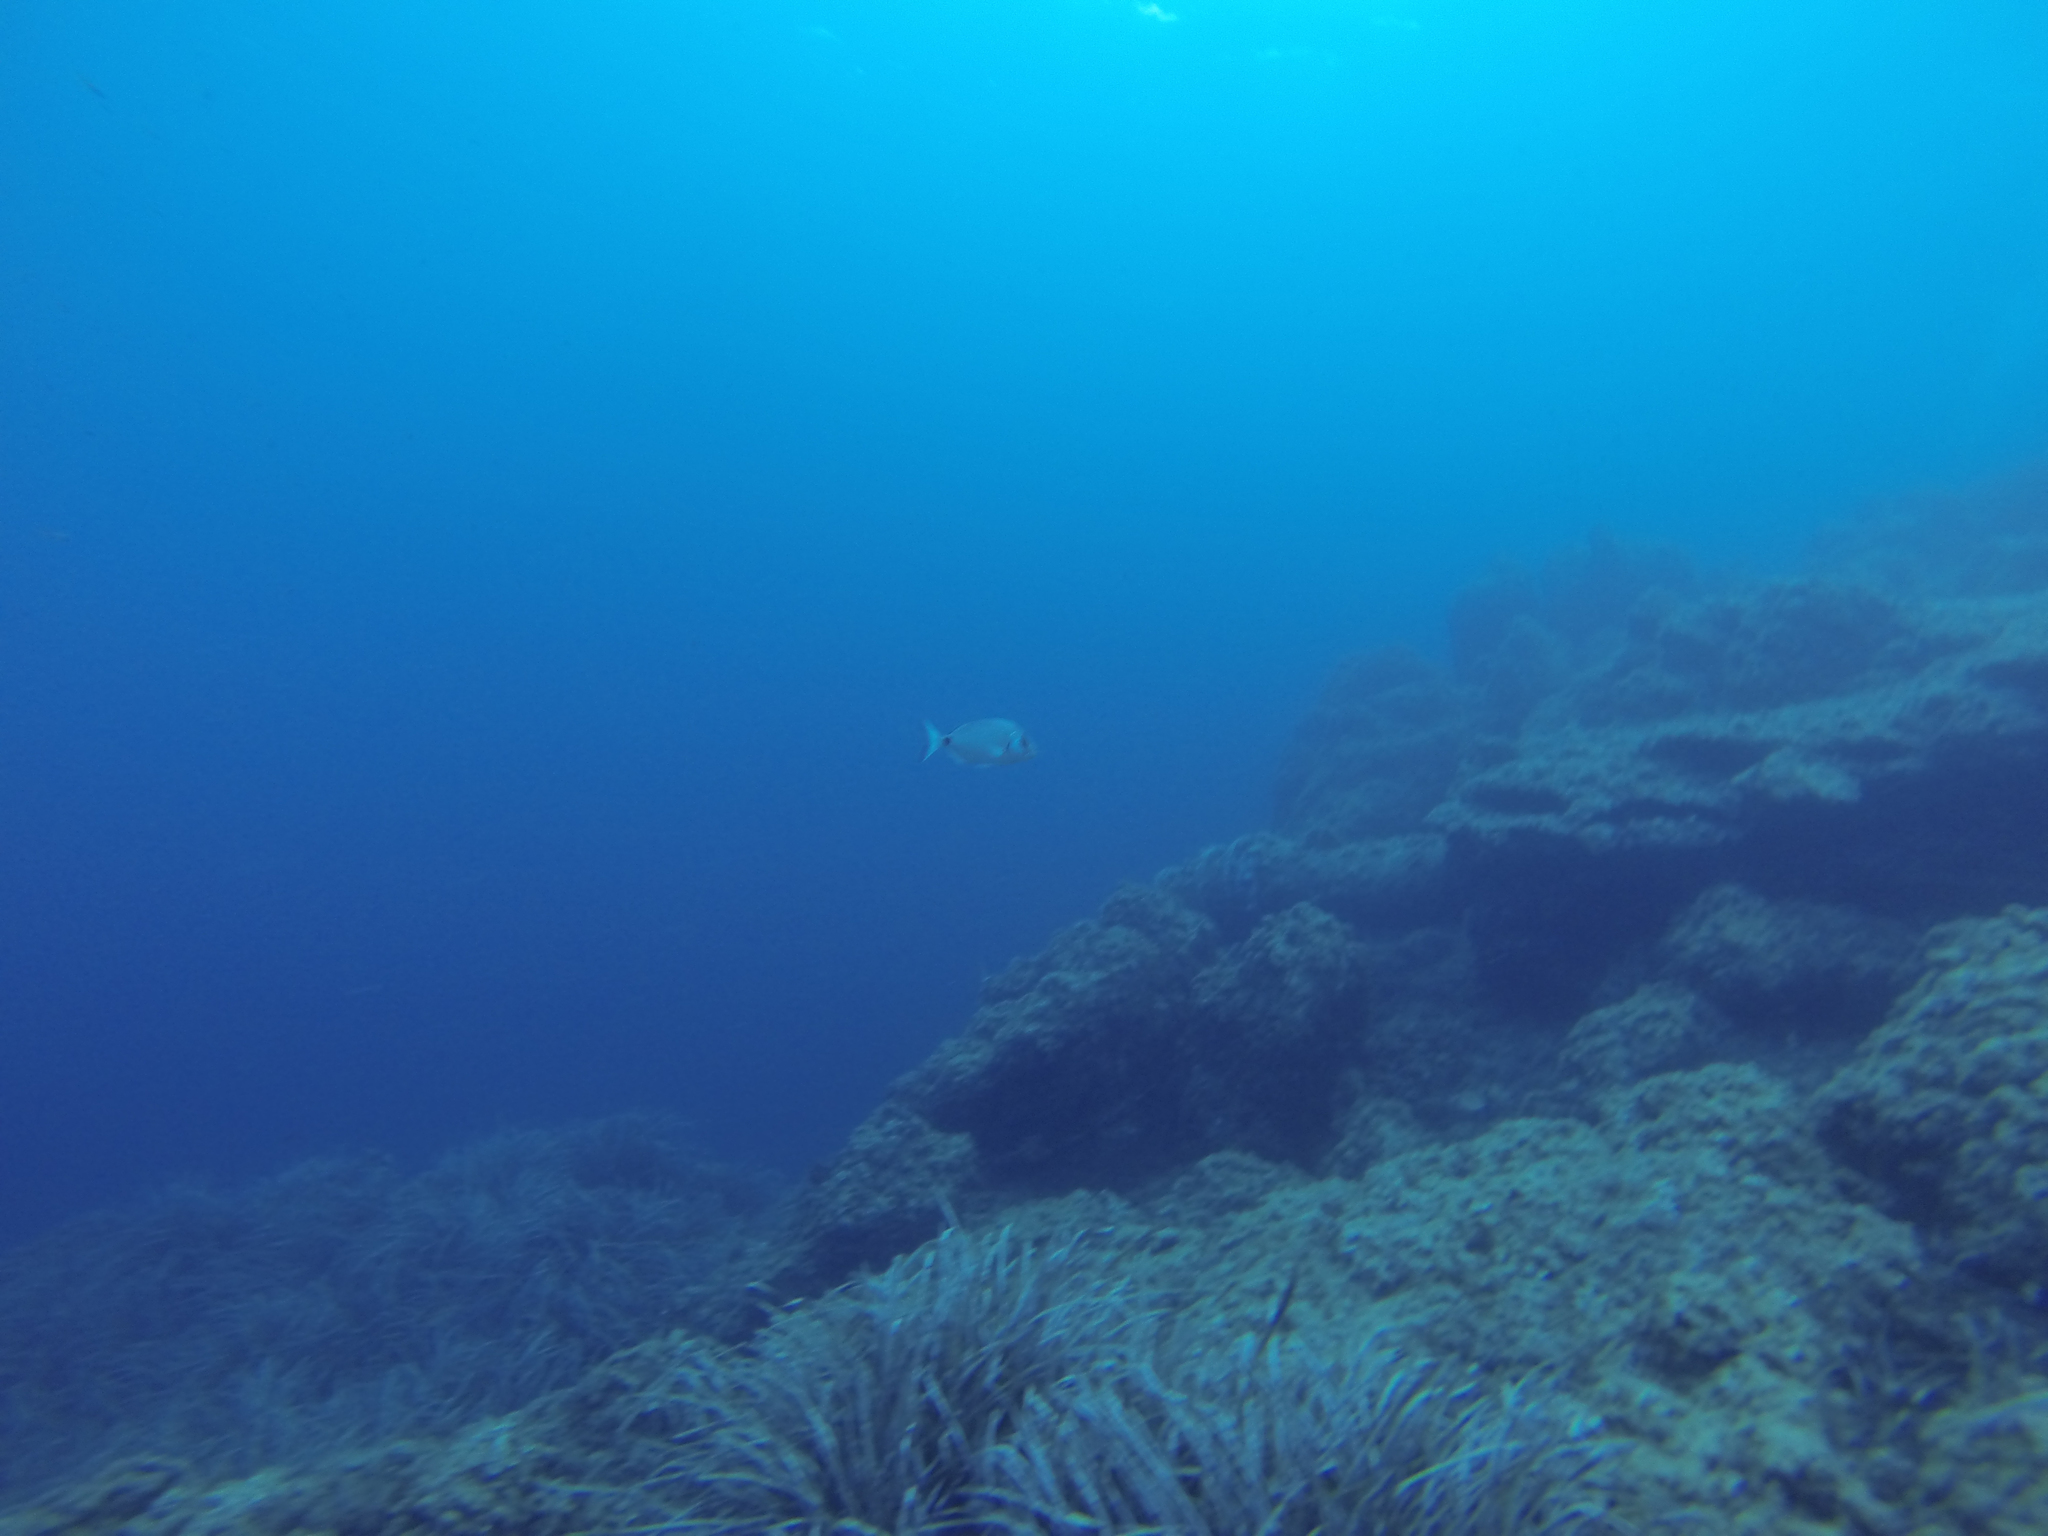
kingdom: Animalia
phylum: Chordata
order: Perciformes
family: Sparidae
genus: Diplodus
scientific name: Diplodus sargus
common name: White seabream
